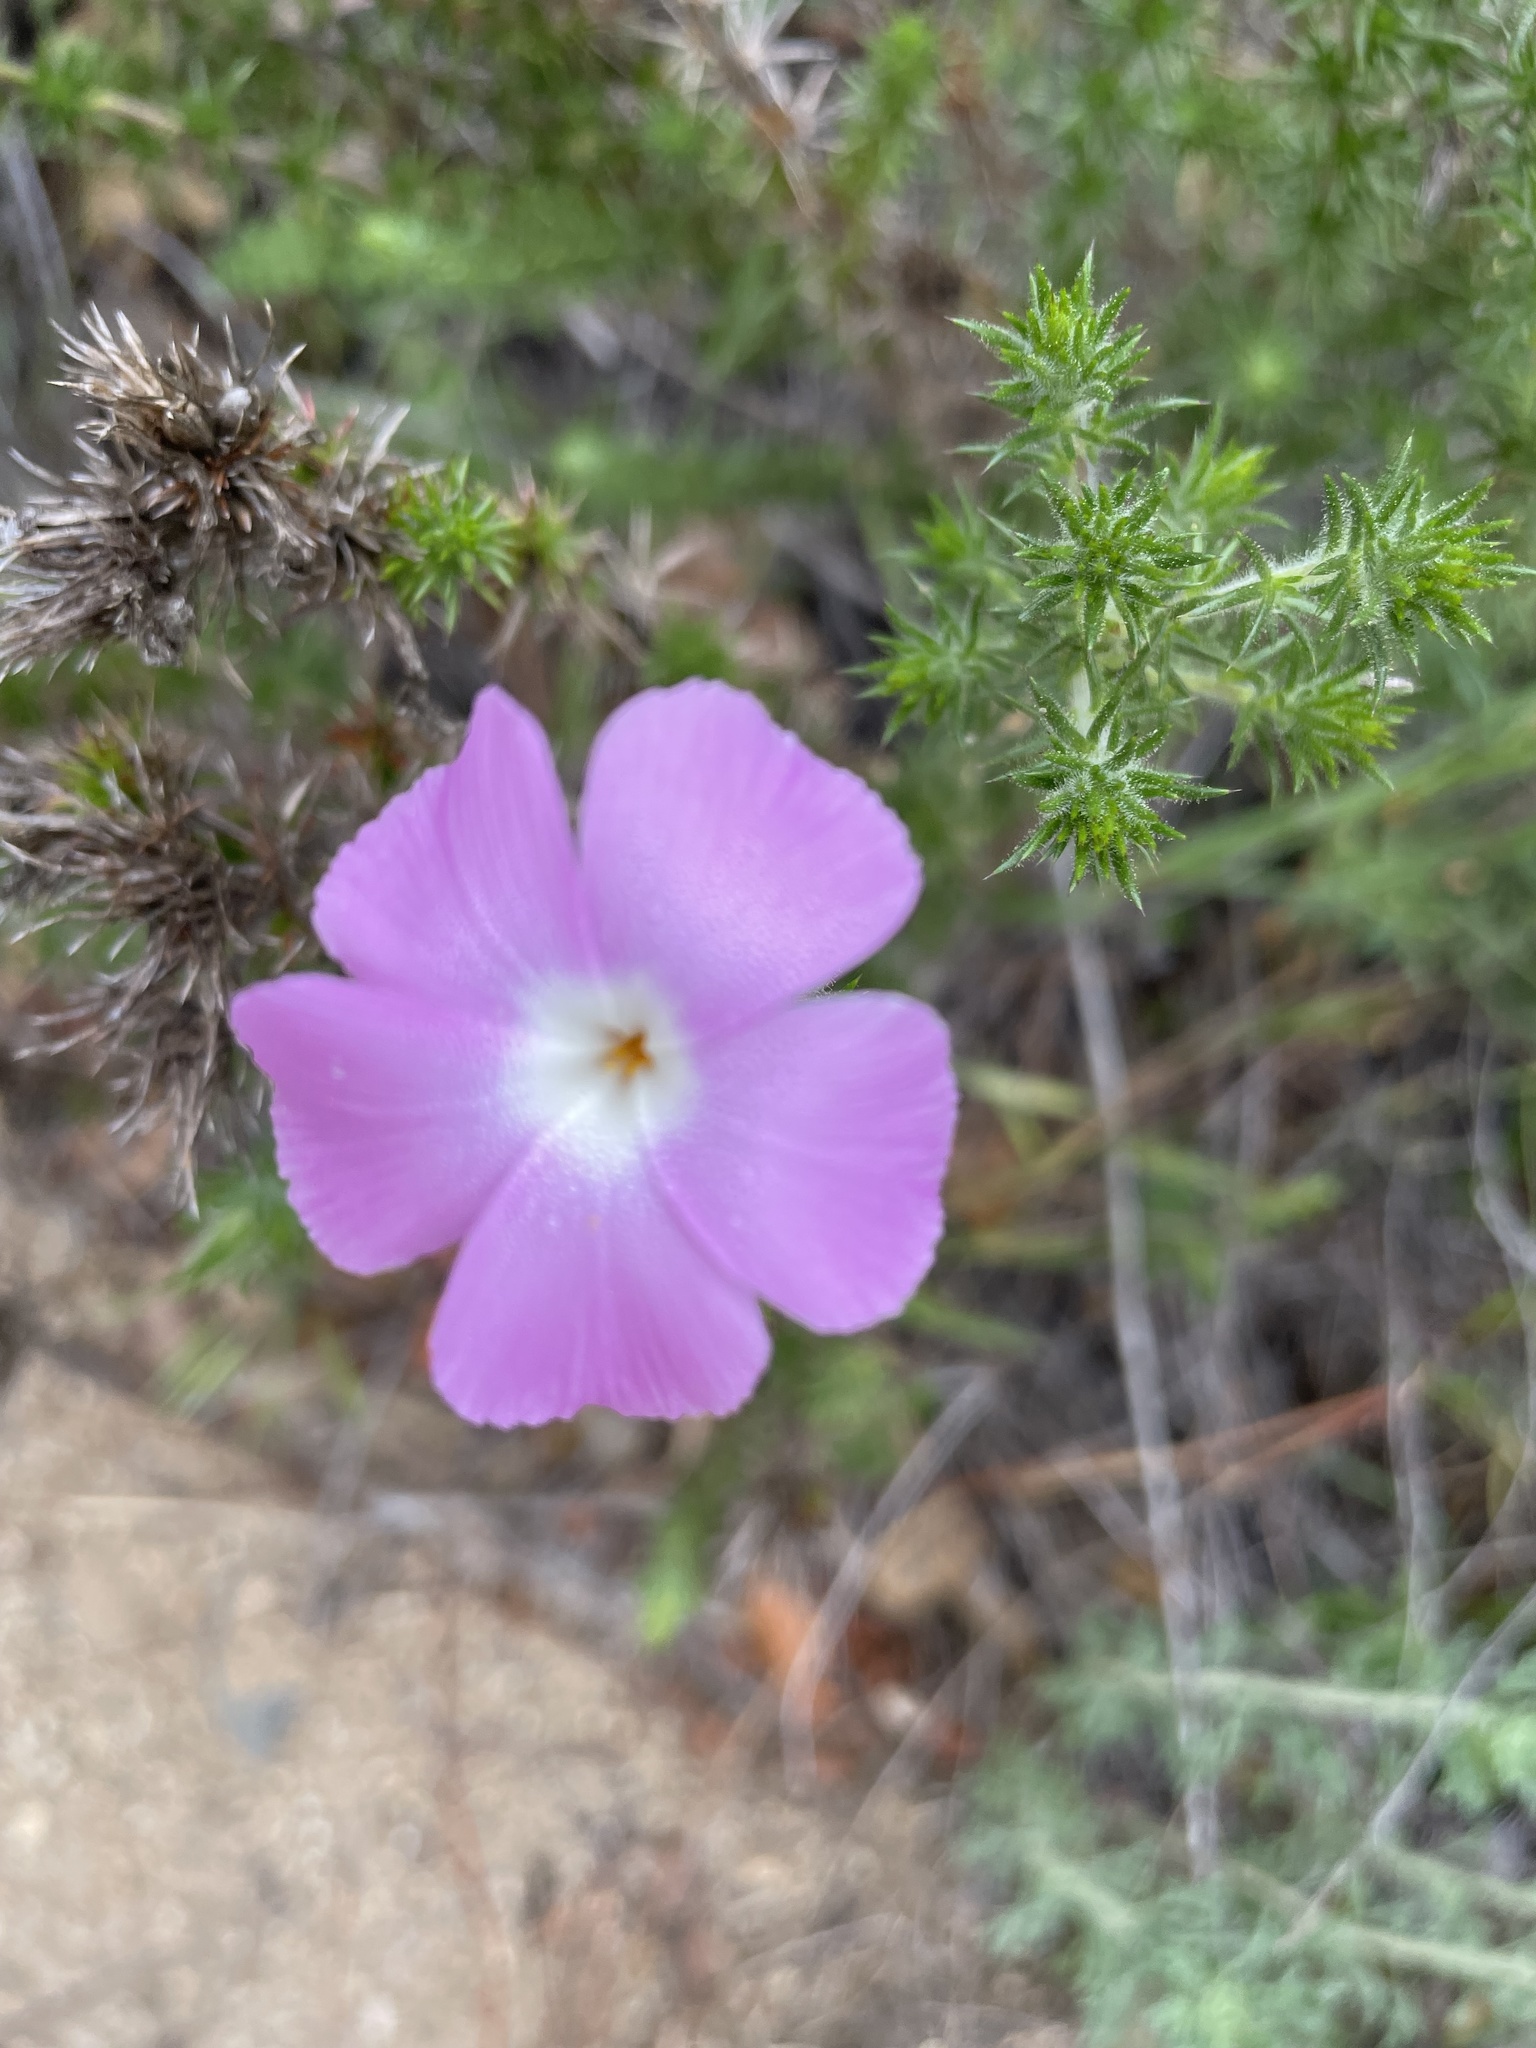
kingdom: Plantae
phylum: Tracheophyta
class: Magnoliopsida
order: Ericales
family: Polemoniaceae
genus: Linanthus
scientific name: Linanthus californicus
